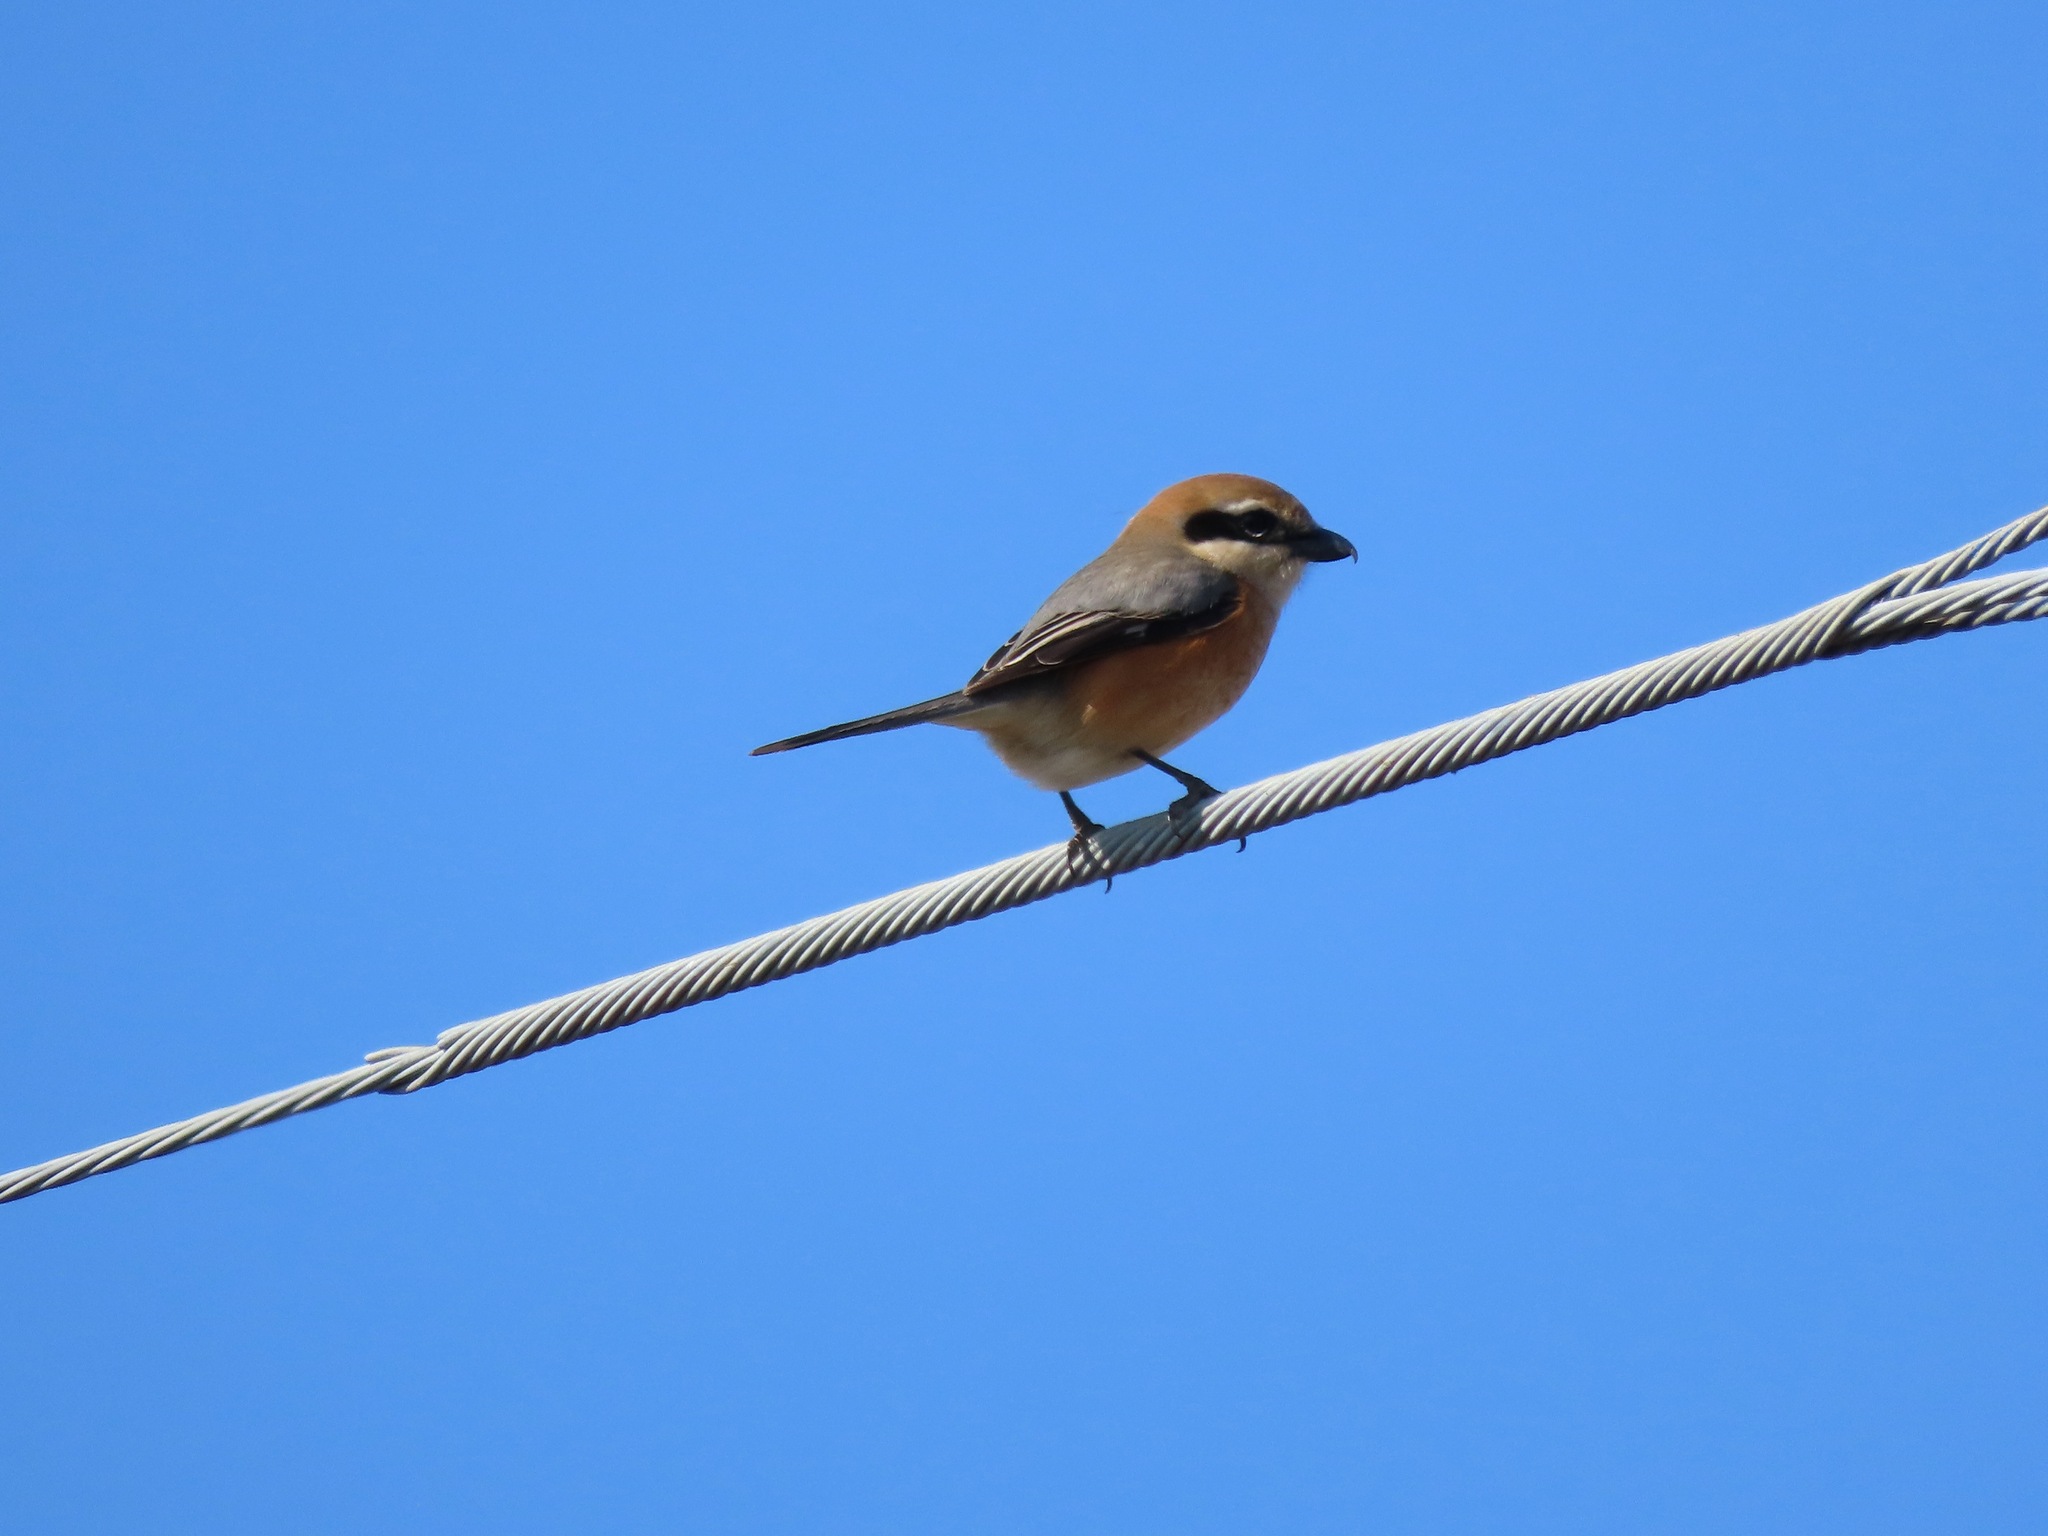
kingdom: Animalia
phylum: Chordata
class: Aves
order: Passeriformes
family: Laniidae
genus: Lanius
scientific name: Lanius bucephalus
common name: Bull-headed shrike
